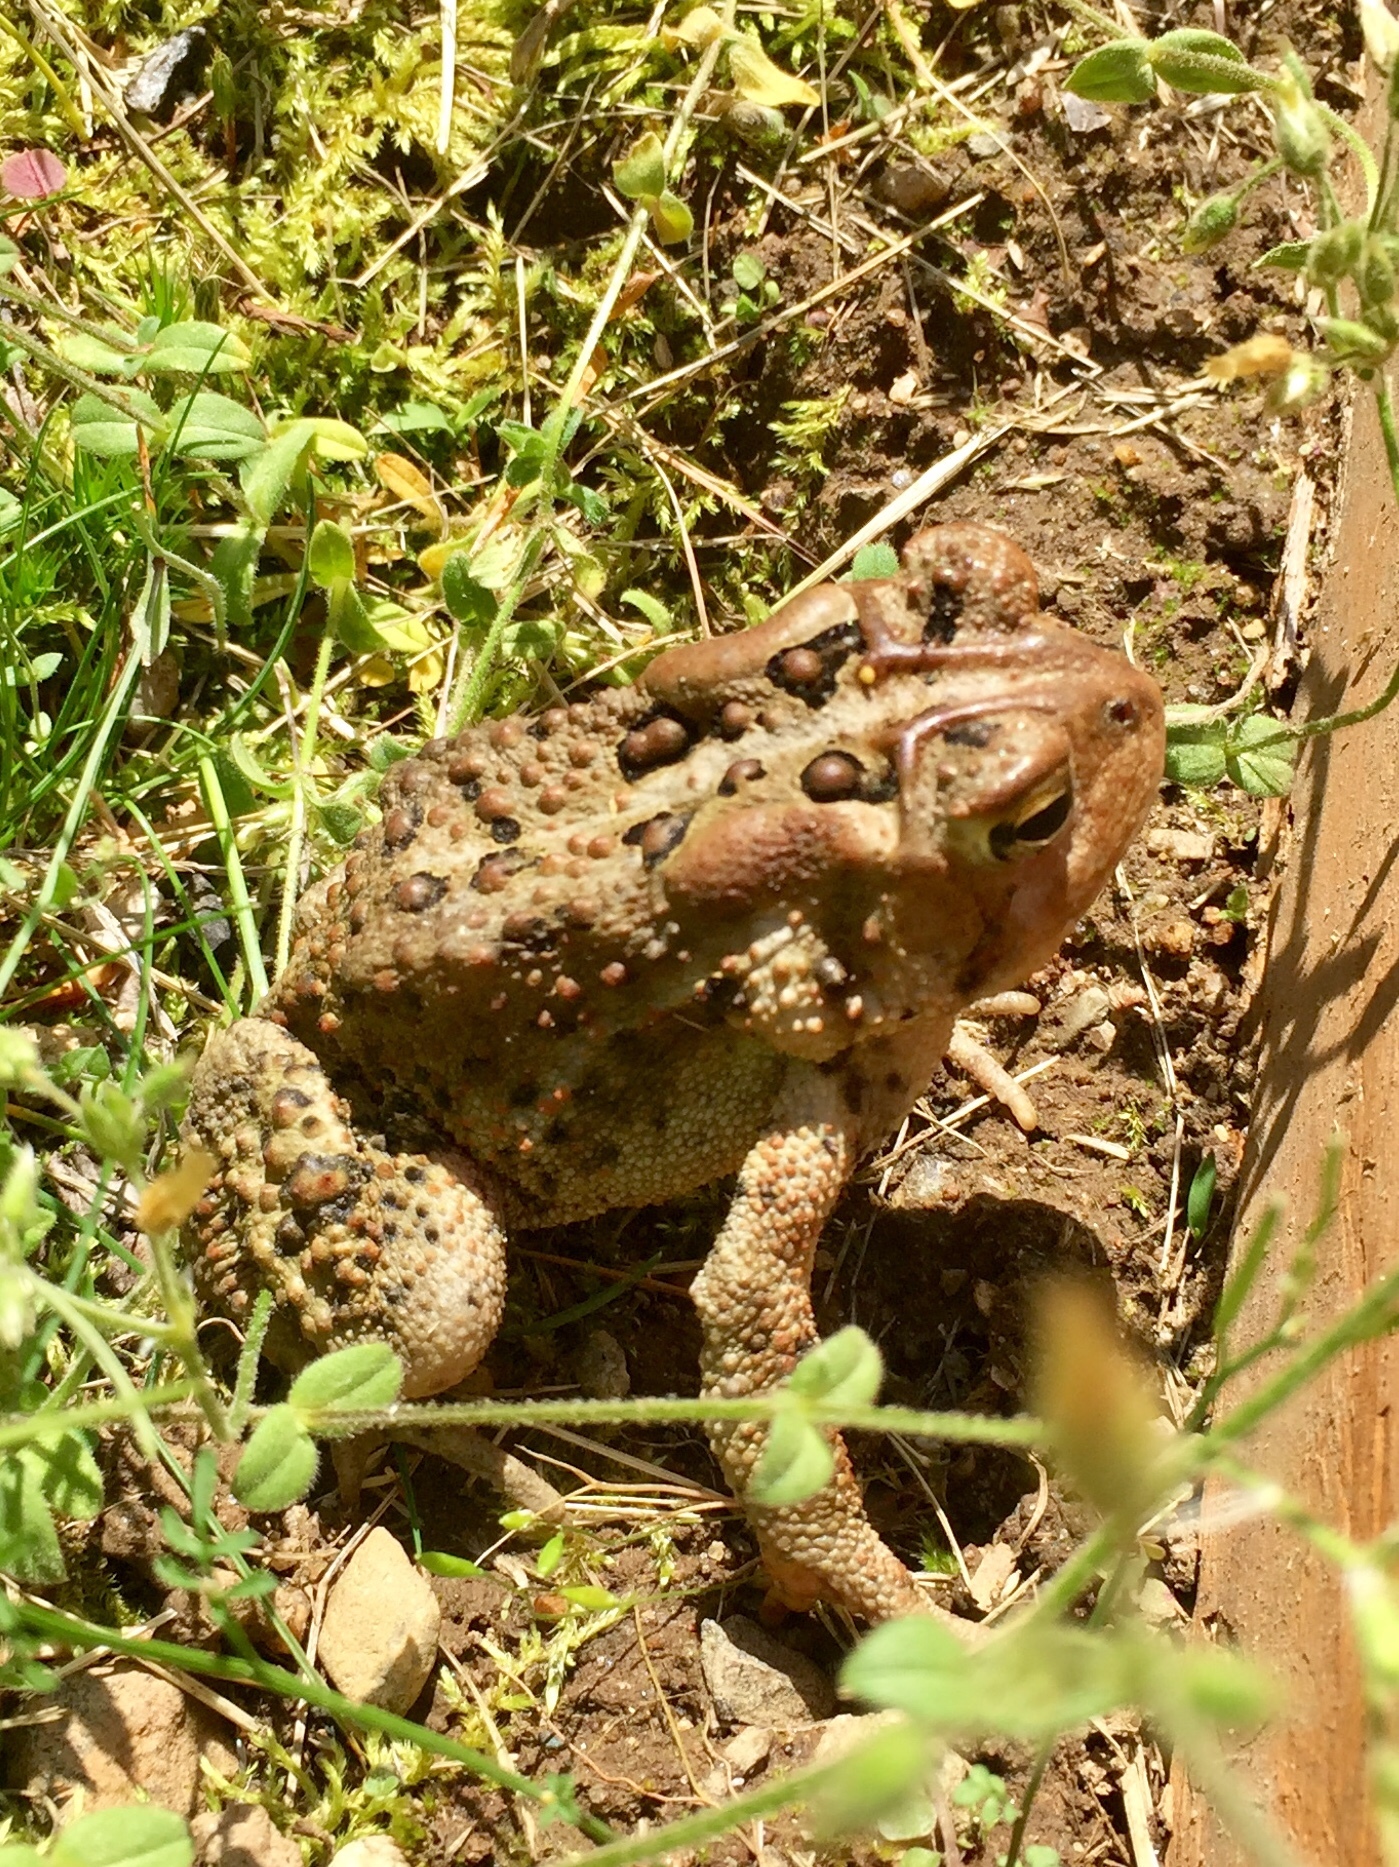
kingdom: Animalia
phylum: Chordata
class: Amphibia
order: Anura
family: Bufonidae
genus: Anaxyrus
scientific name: Anaxyrus americanus
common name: American toad
